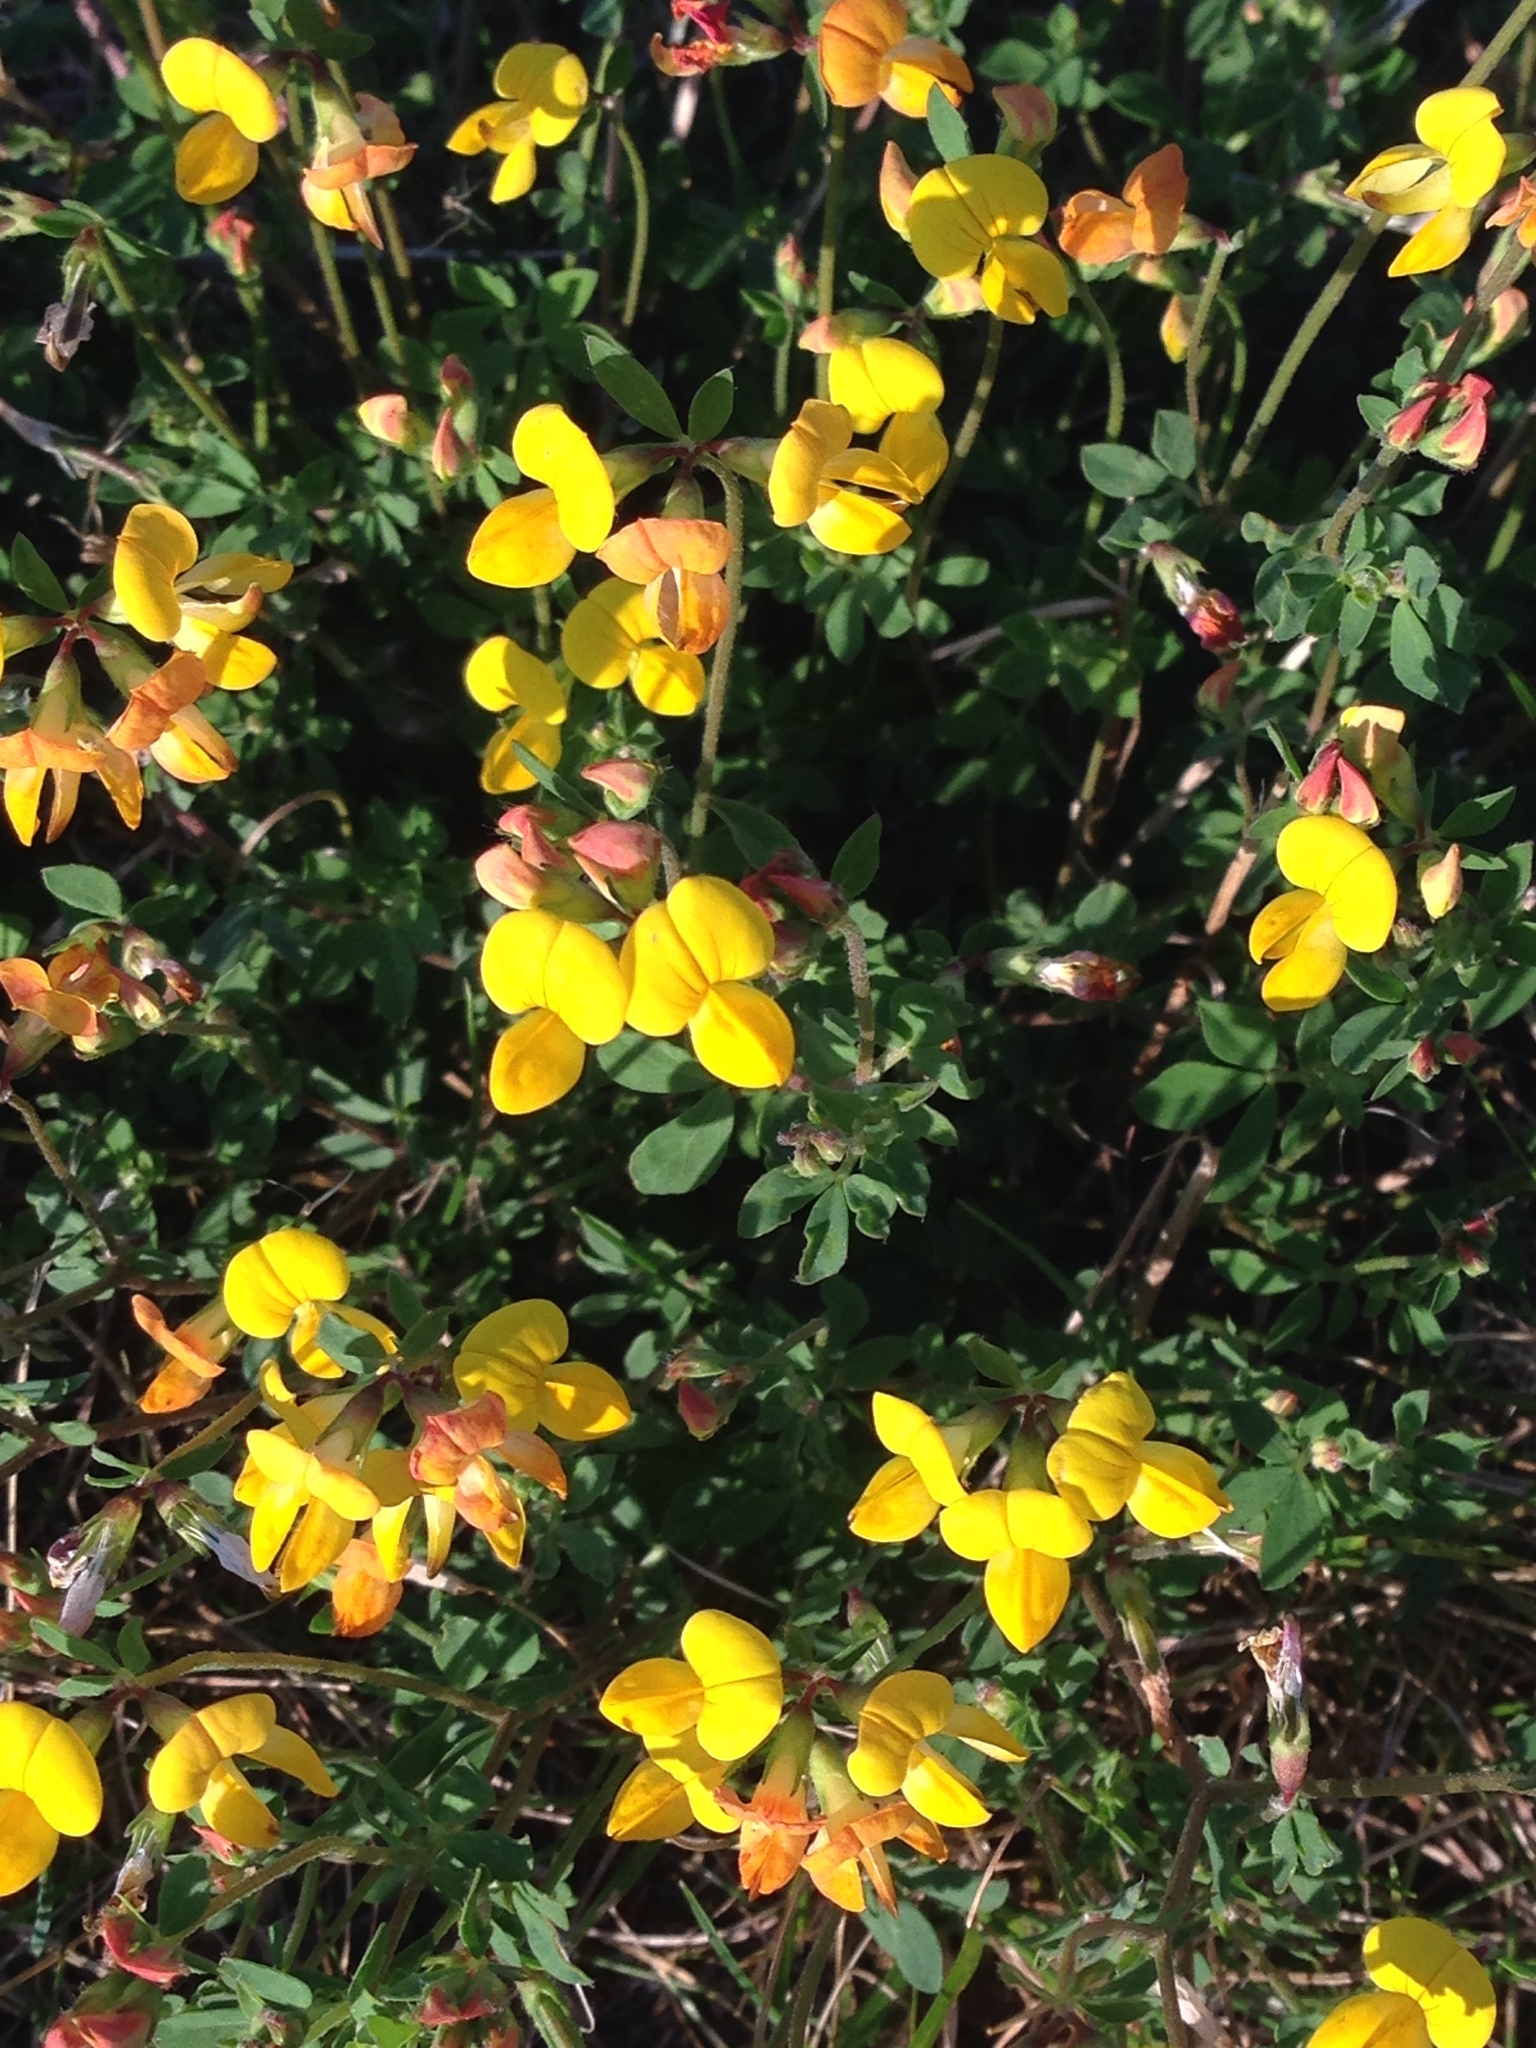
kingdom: Plantae
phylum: Tracheophyta
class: Magnoliopsida
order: Fabales
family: Fabaceae
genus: Lotus
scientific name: Lotus corniculatus
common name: Common bird's-foot-trefoil
